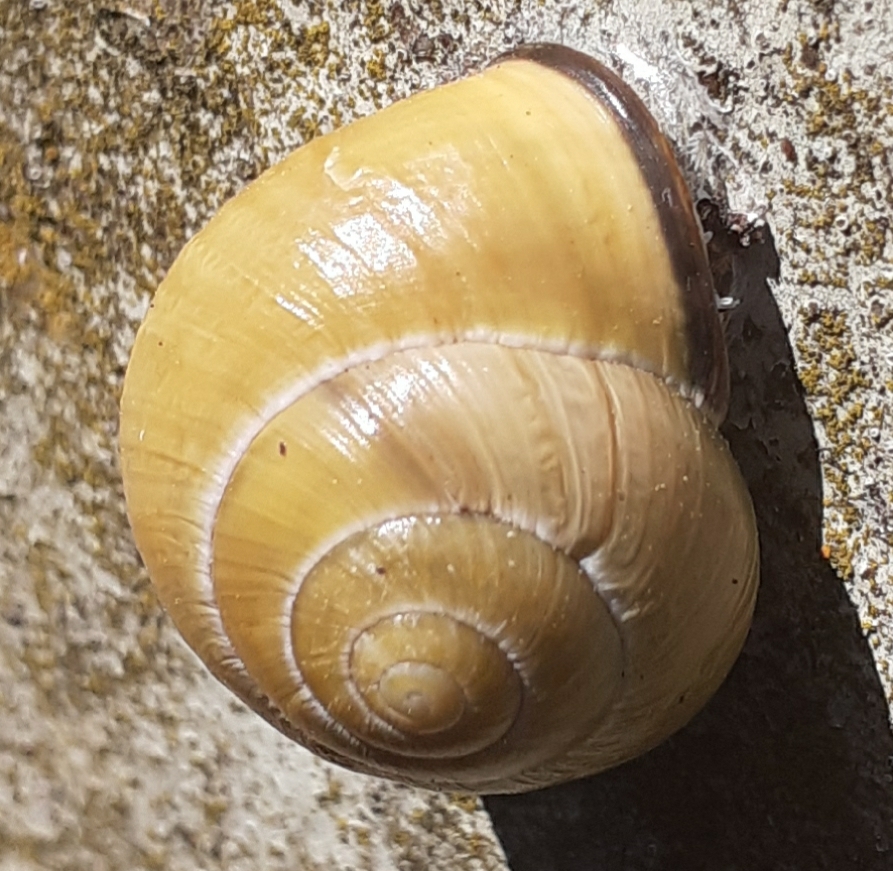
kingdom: Animalia
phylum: Mollusca
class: Gastropoda
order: Stylommatophora
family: Helicidae
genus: Cepaea
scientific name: Cepaea nemoralis
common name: Grovesnail
